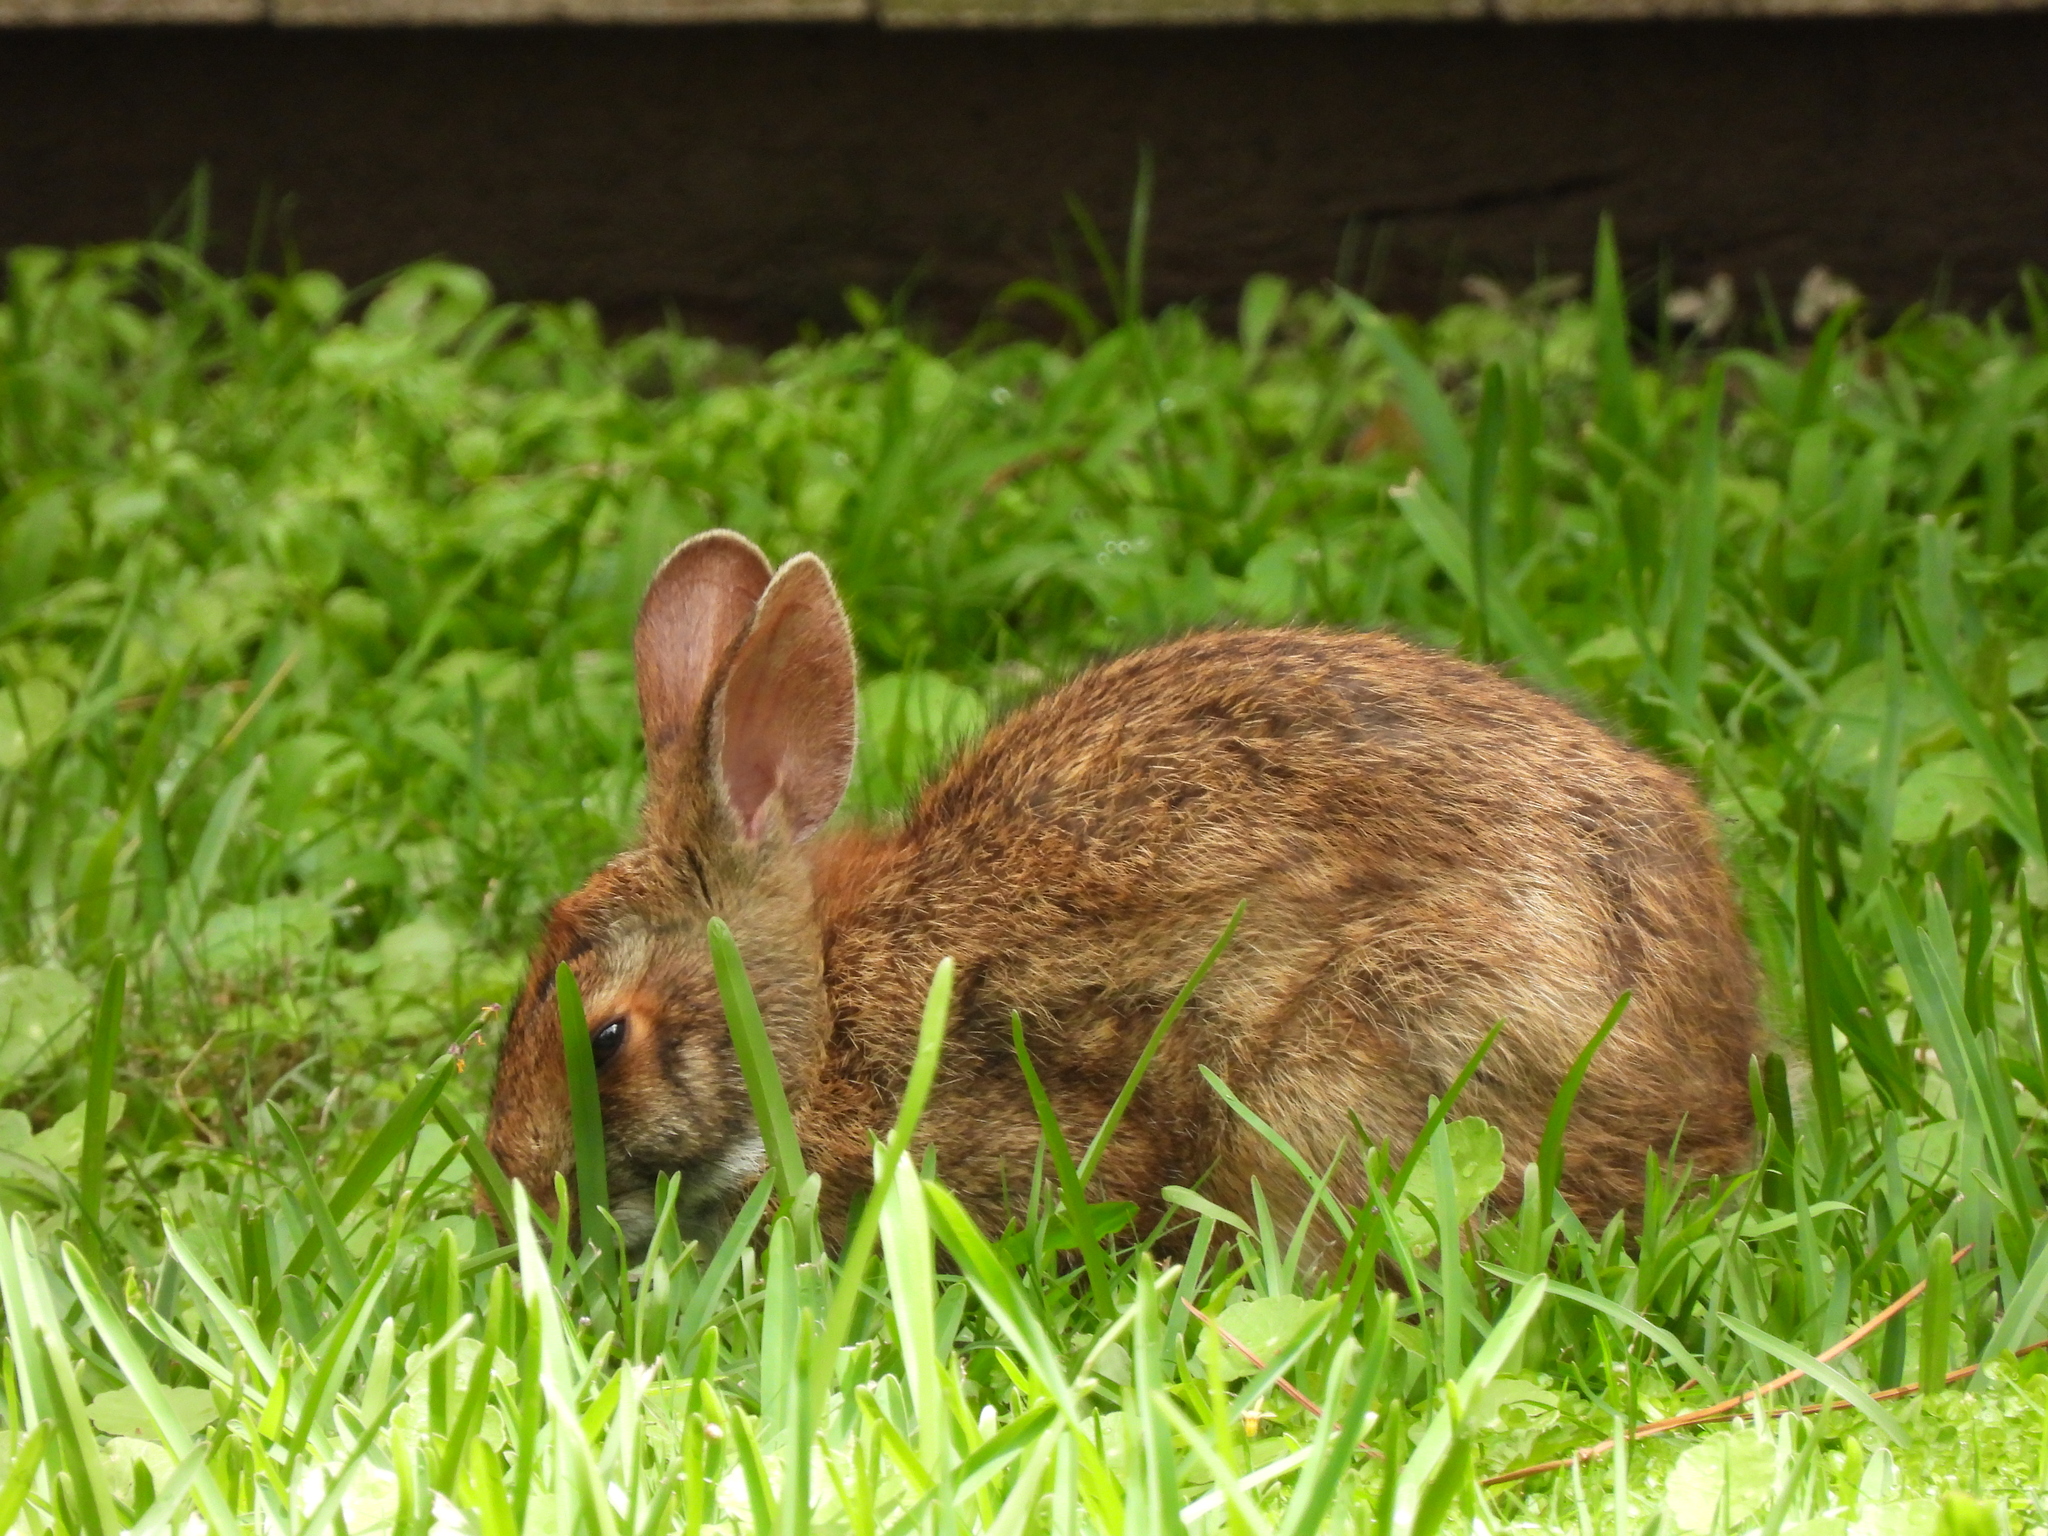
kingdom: Animalia
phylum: Chordata
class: Mammalia
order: Lagomorpha
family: Leporidae
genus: Sylvilagus
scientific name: Sylvilagus aquaticus
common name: Swamp rabbit
